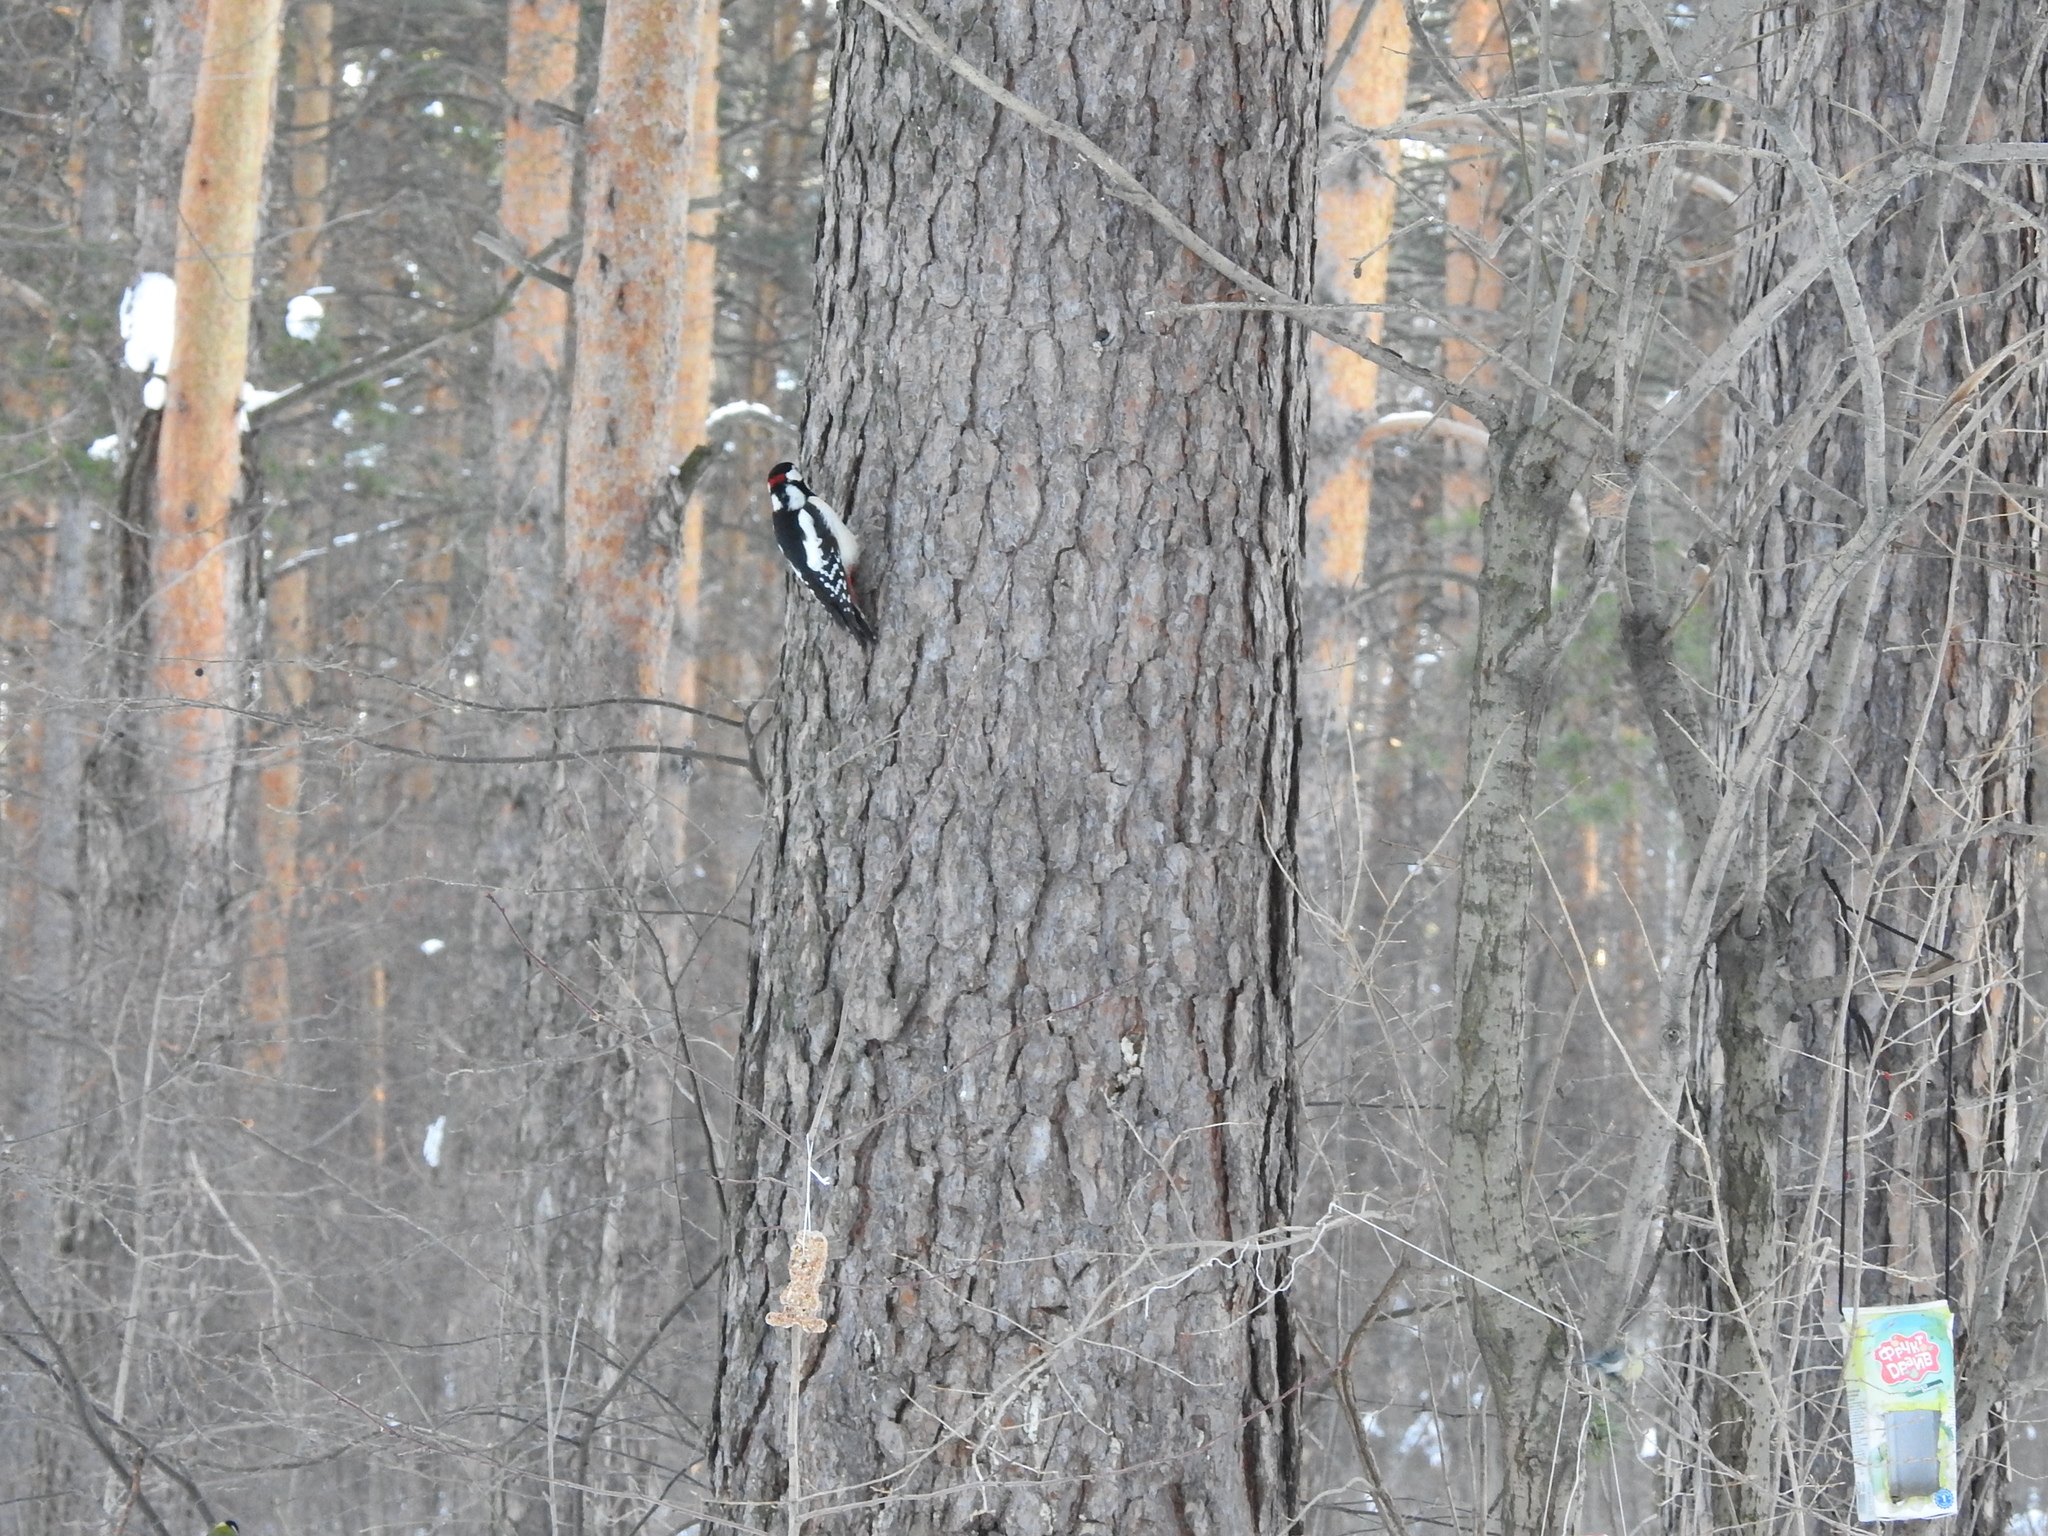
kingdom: Animalia
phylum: Chordata
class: Aves
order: Piciformes
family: Picidae
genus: Dendrocopos
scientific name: Dendrocopos major
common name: Great spotted woodpecker
